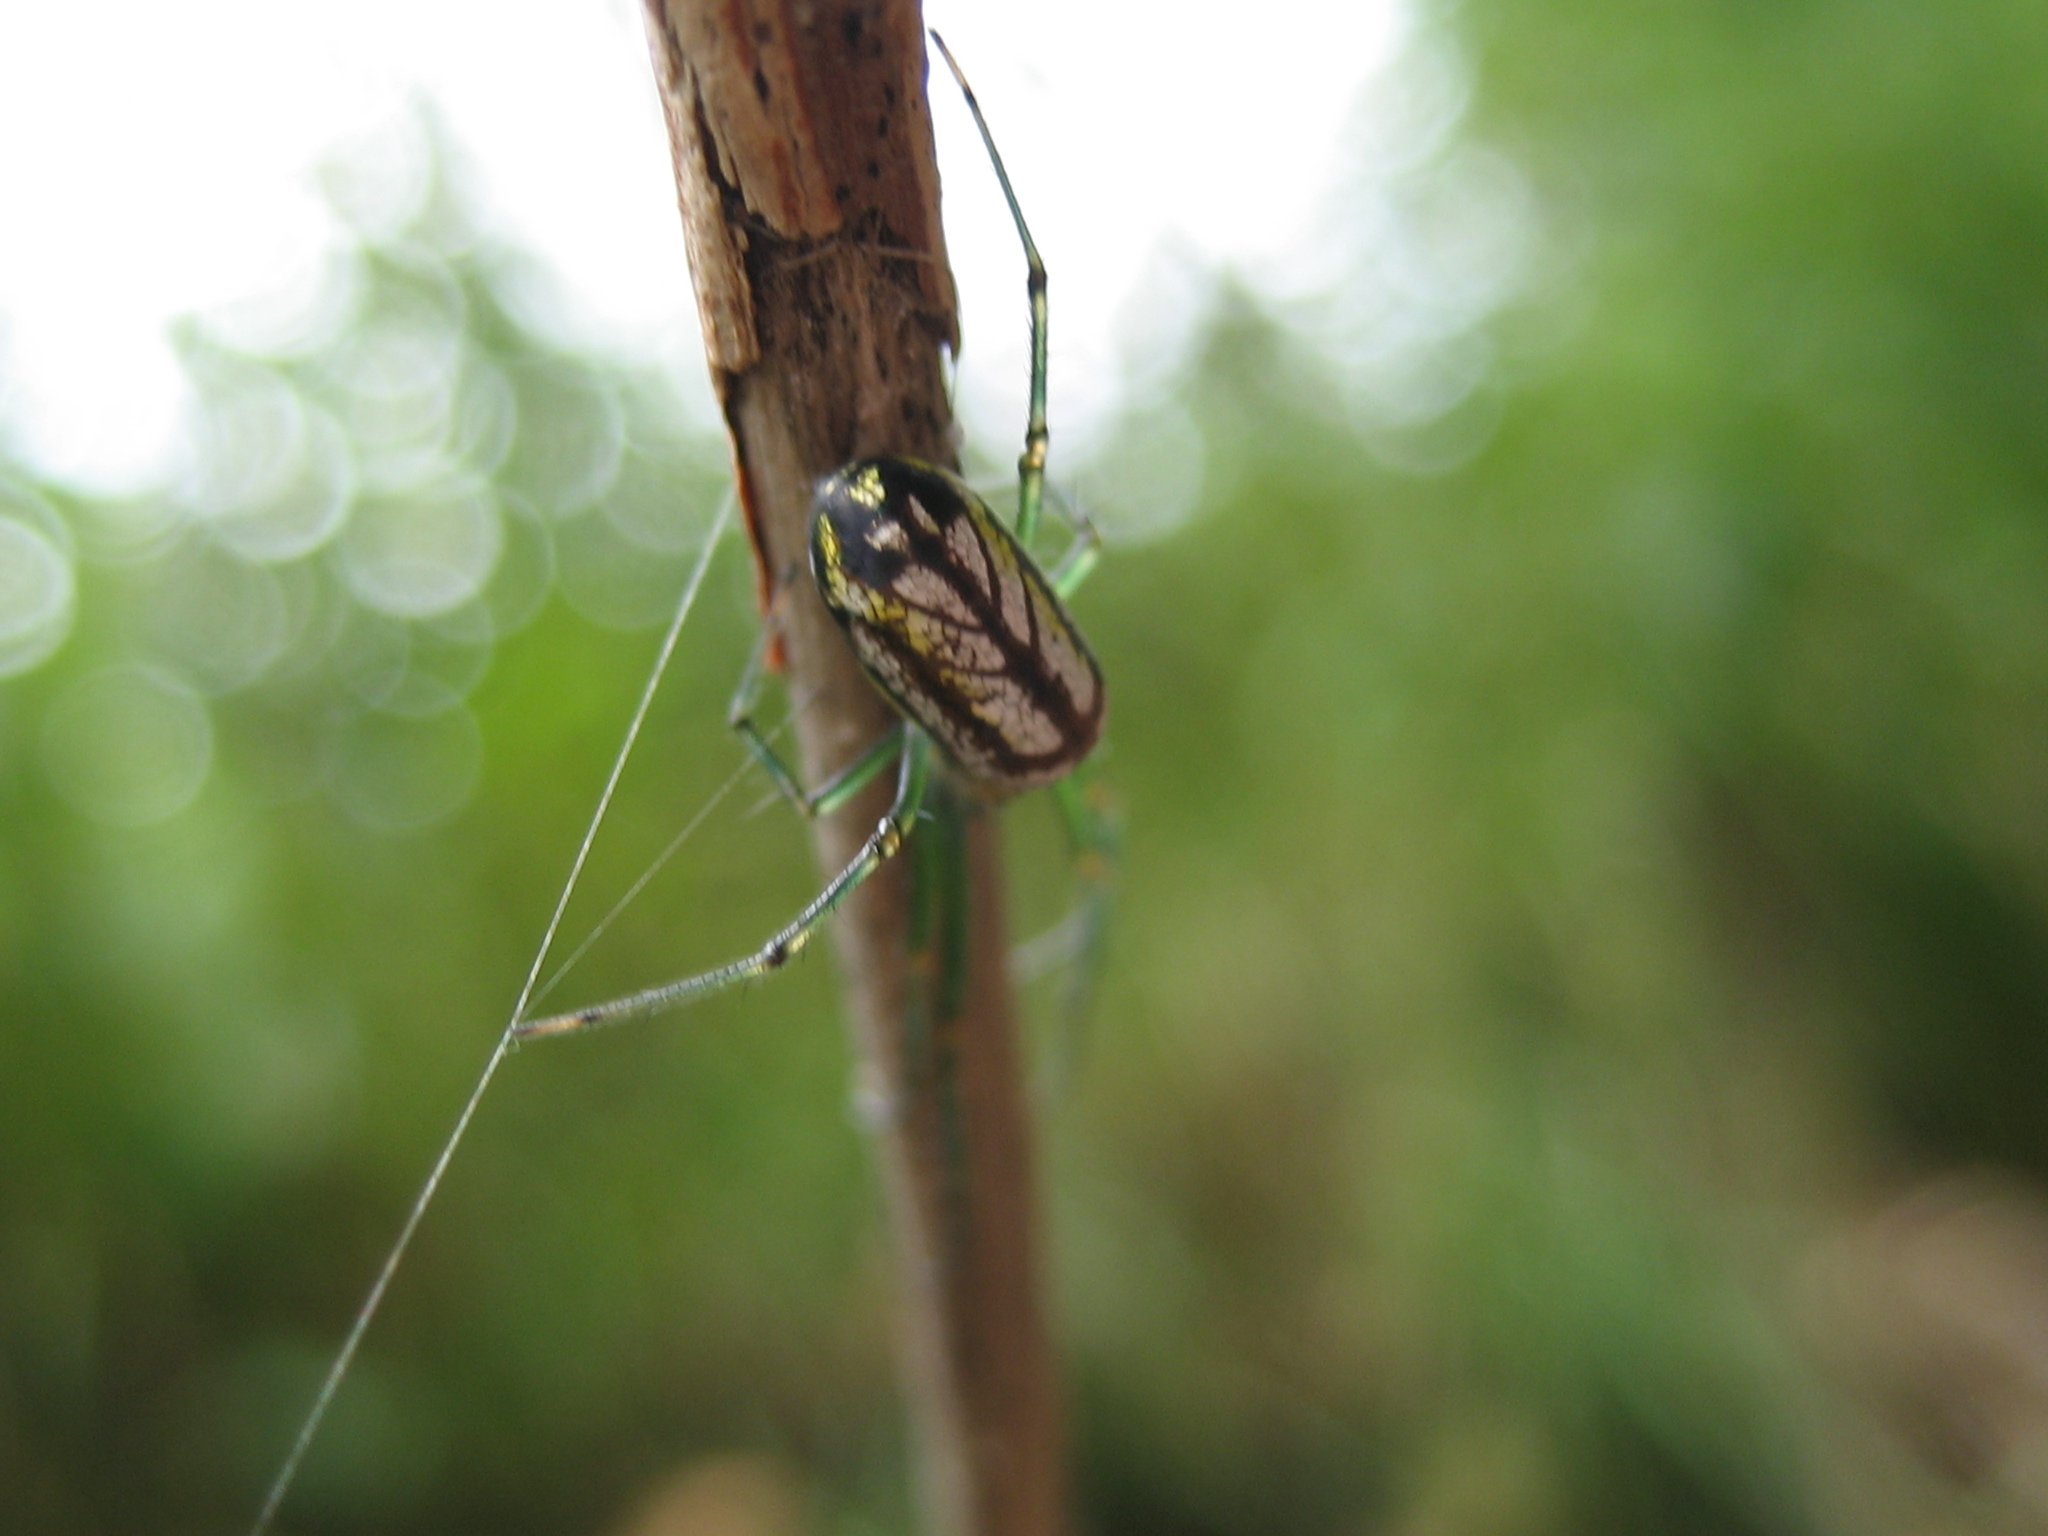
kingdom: Animalia
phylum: Arthropoda
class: Arachnida
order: Araneae
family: Tetragnathidae
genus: Leucauge
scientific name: Leucauge venusta
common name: Longjawed orb weavers
